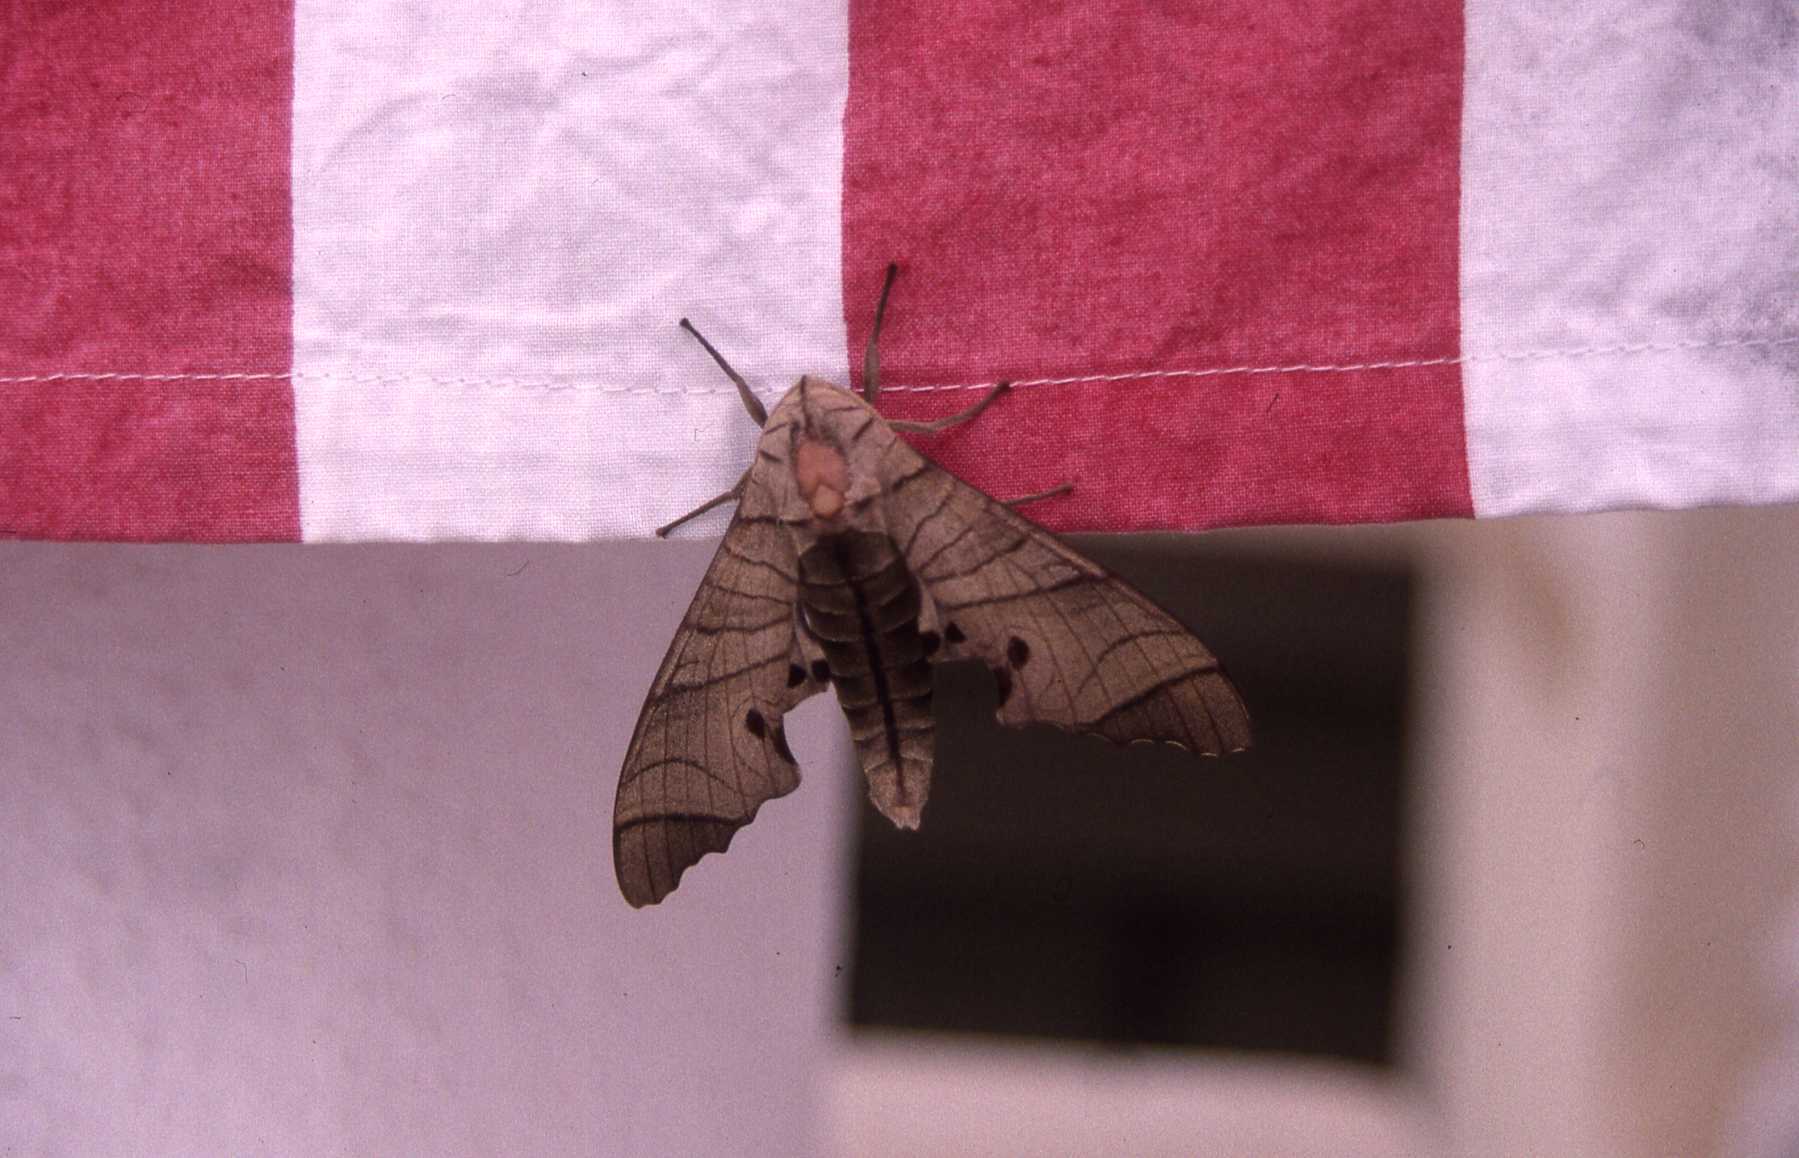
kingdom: Animalia
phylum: Arthropoda
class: Insecta
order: Lepidoptera
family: Sphingidae
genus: Marumba
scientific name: Marumba juvencus
